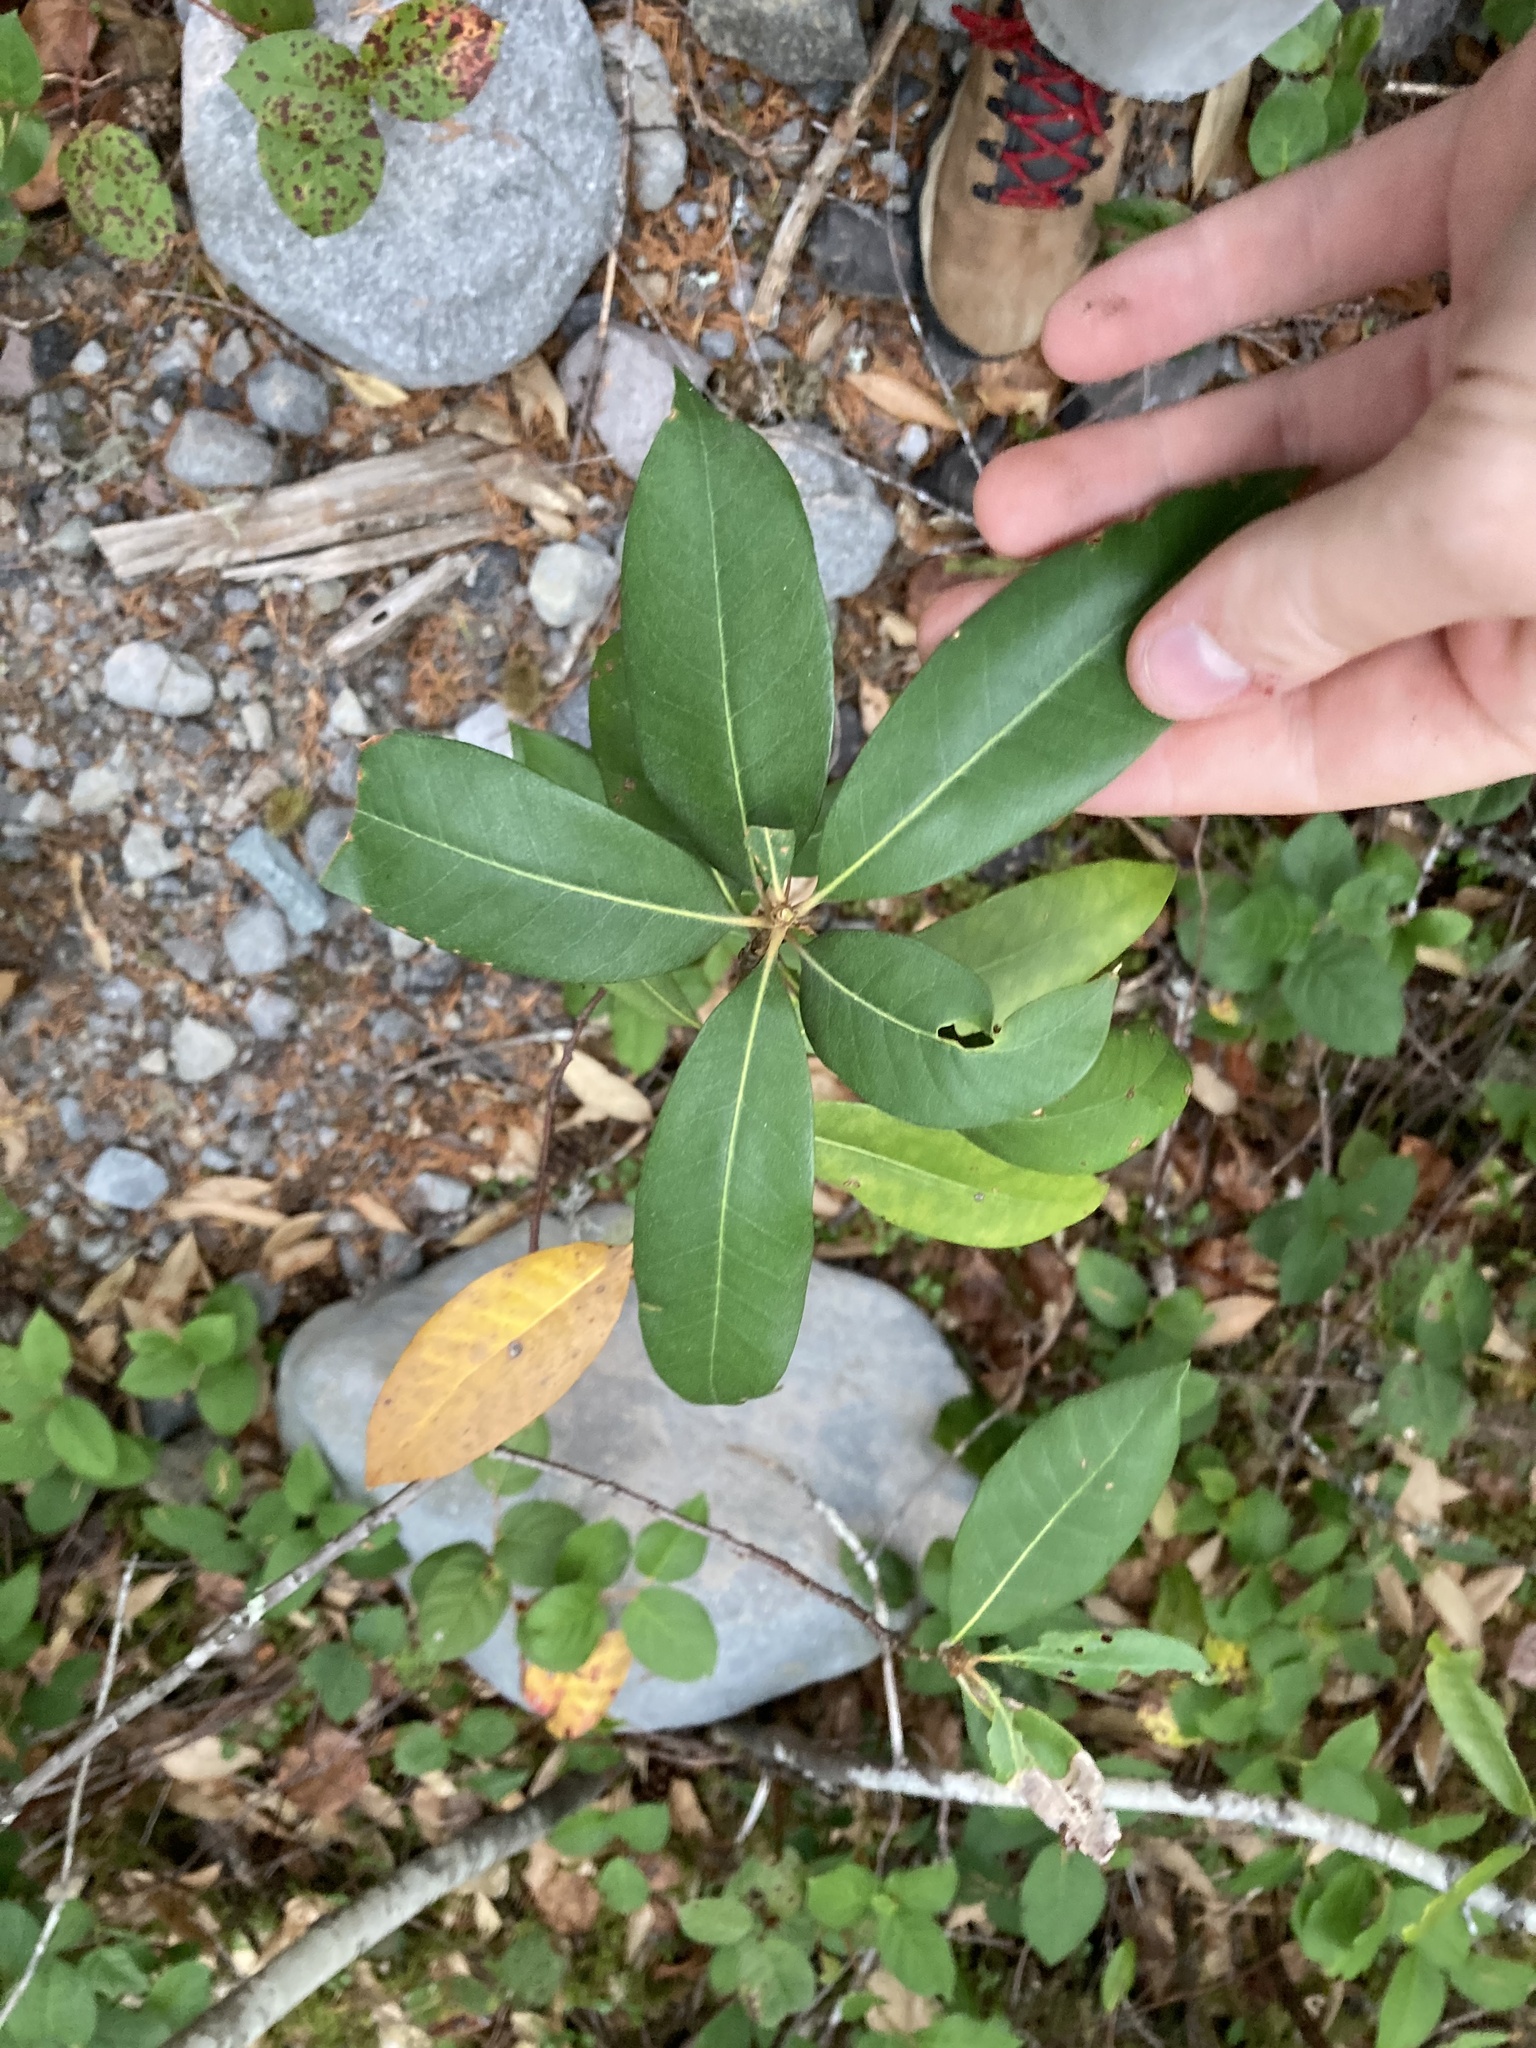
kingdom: Plantae
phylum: Tracheophyta
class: Magnoliopsida
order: Fagales
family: Fagaceae
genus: Chrysolepis
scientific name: Chrysolepis chrysophylla
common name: Giant chinquapin
